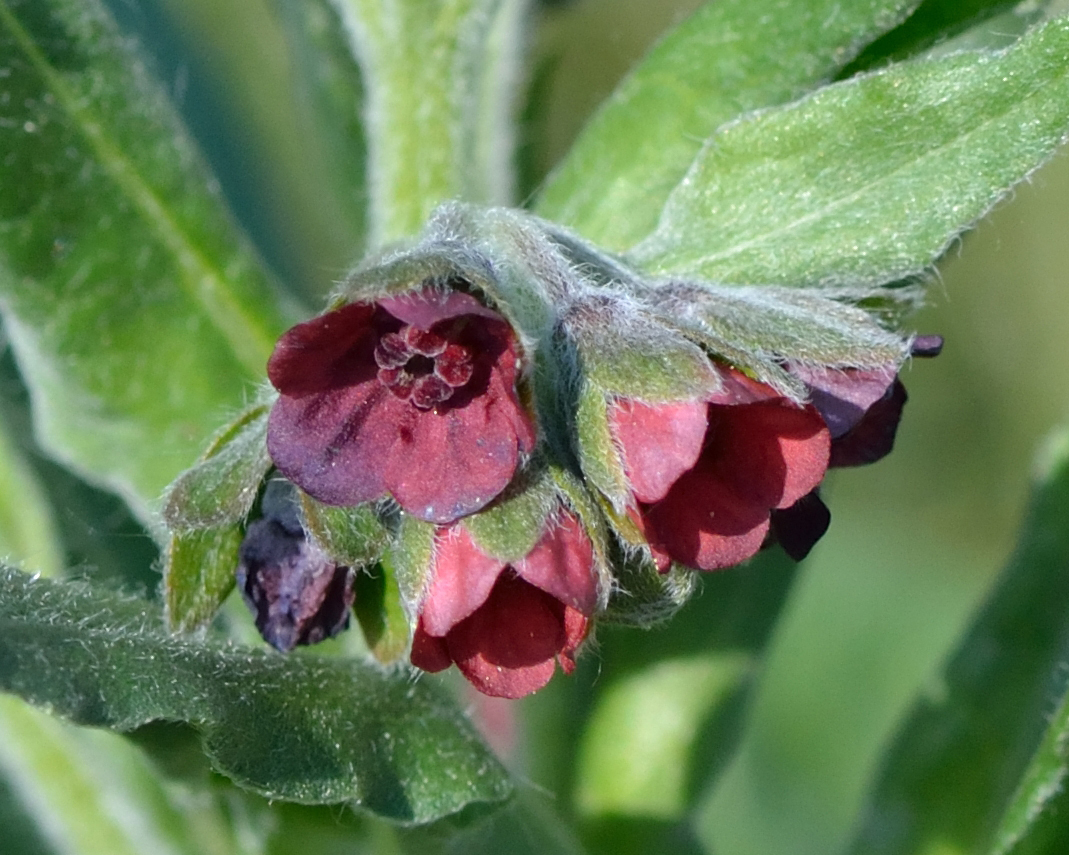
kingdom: Plantae
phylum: Tracheophyta
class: Magnoliopsida
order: Boraginales
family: Boraginaceae
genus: Cynoglossum
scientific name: Cynoglossum officinale
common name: Hound's-tongue
